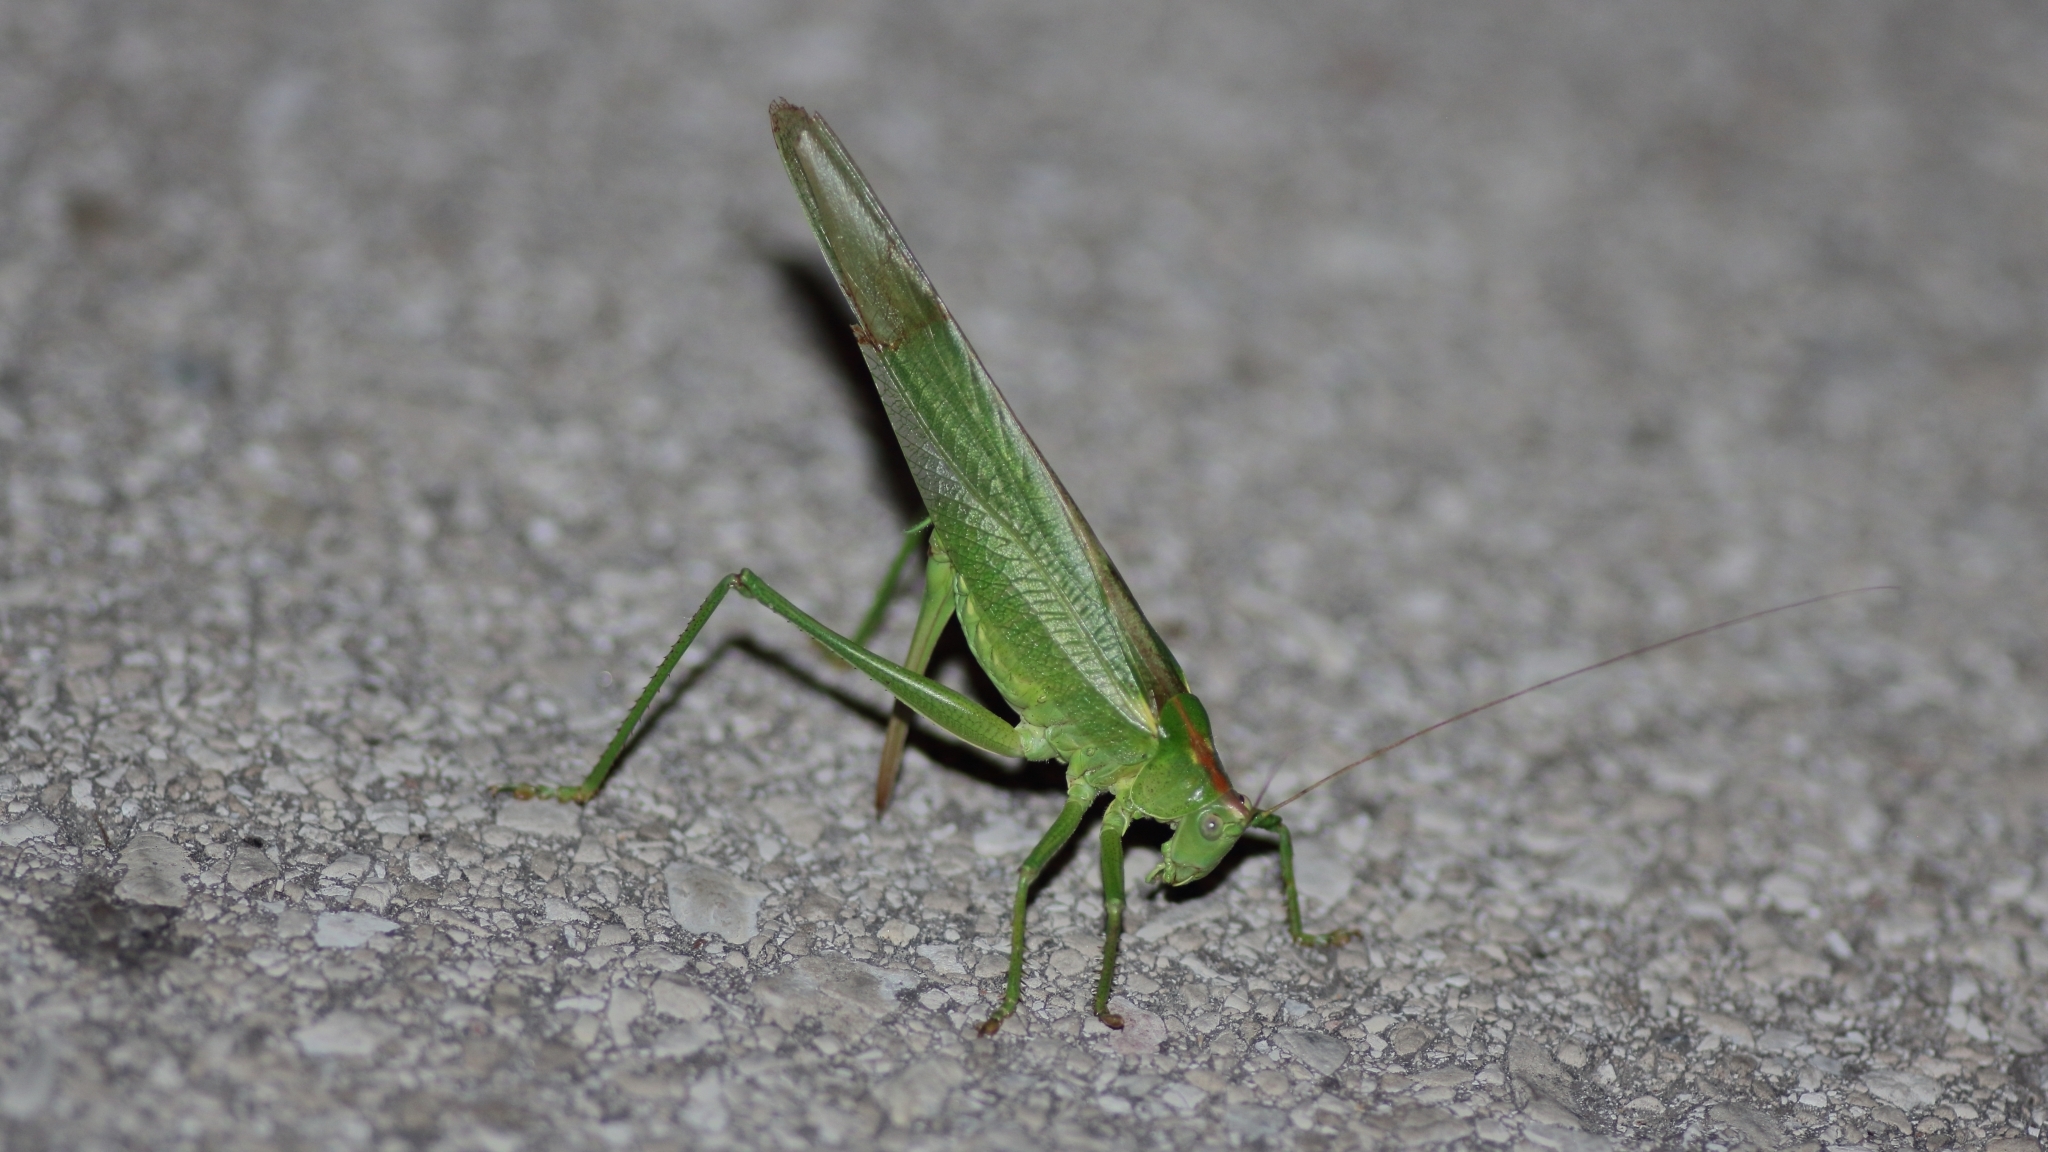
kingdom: Animalia
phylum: Arthropoda
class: Insecta
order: Orthoptera
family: Tettigoniidae
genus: Tettigonia
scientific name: Tettigonia viridissima
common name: Great green bush-cricket
